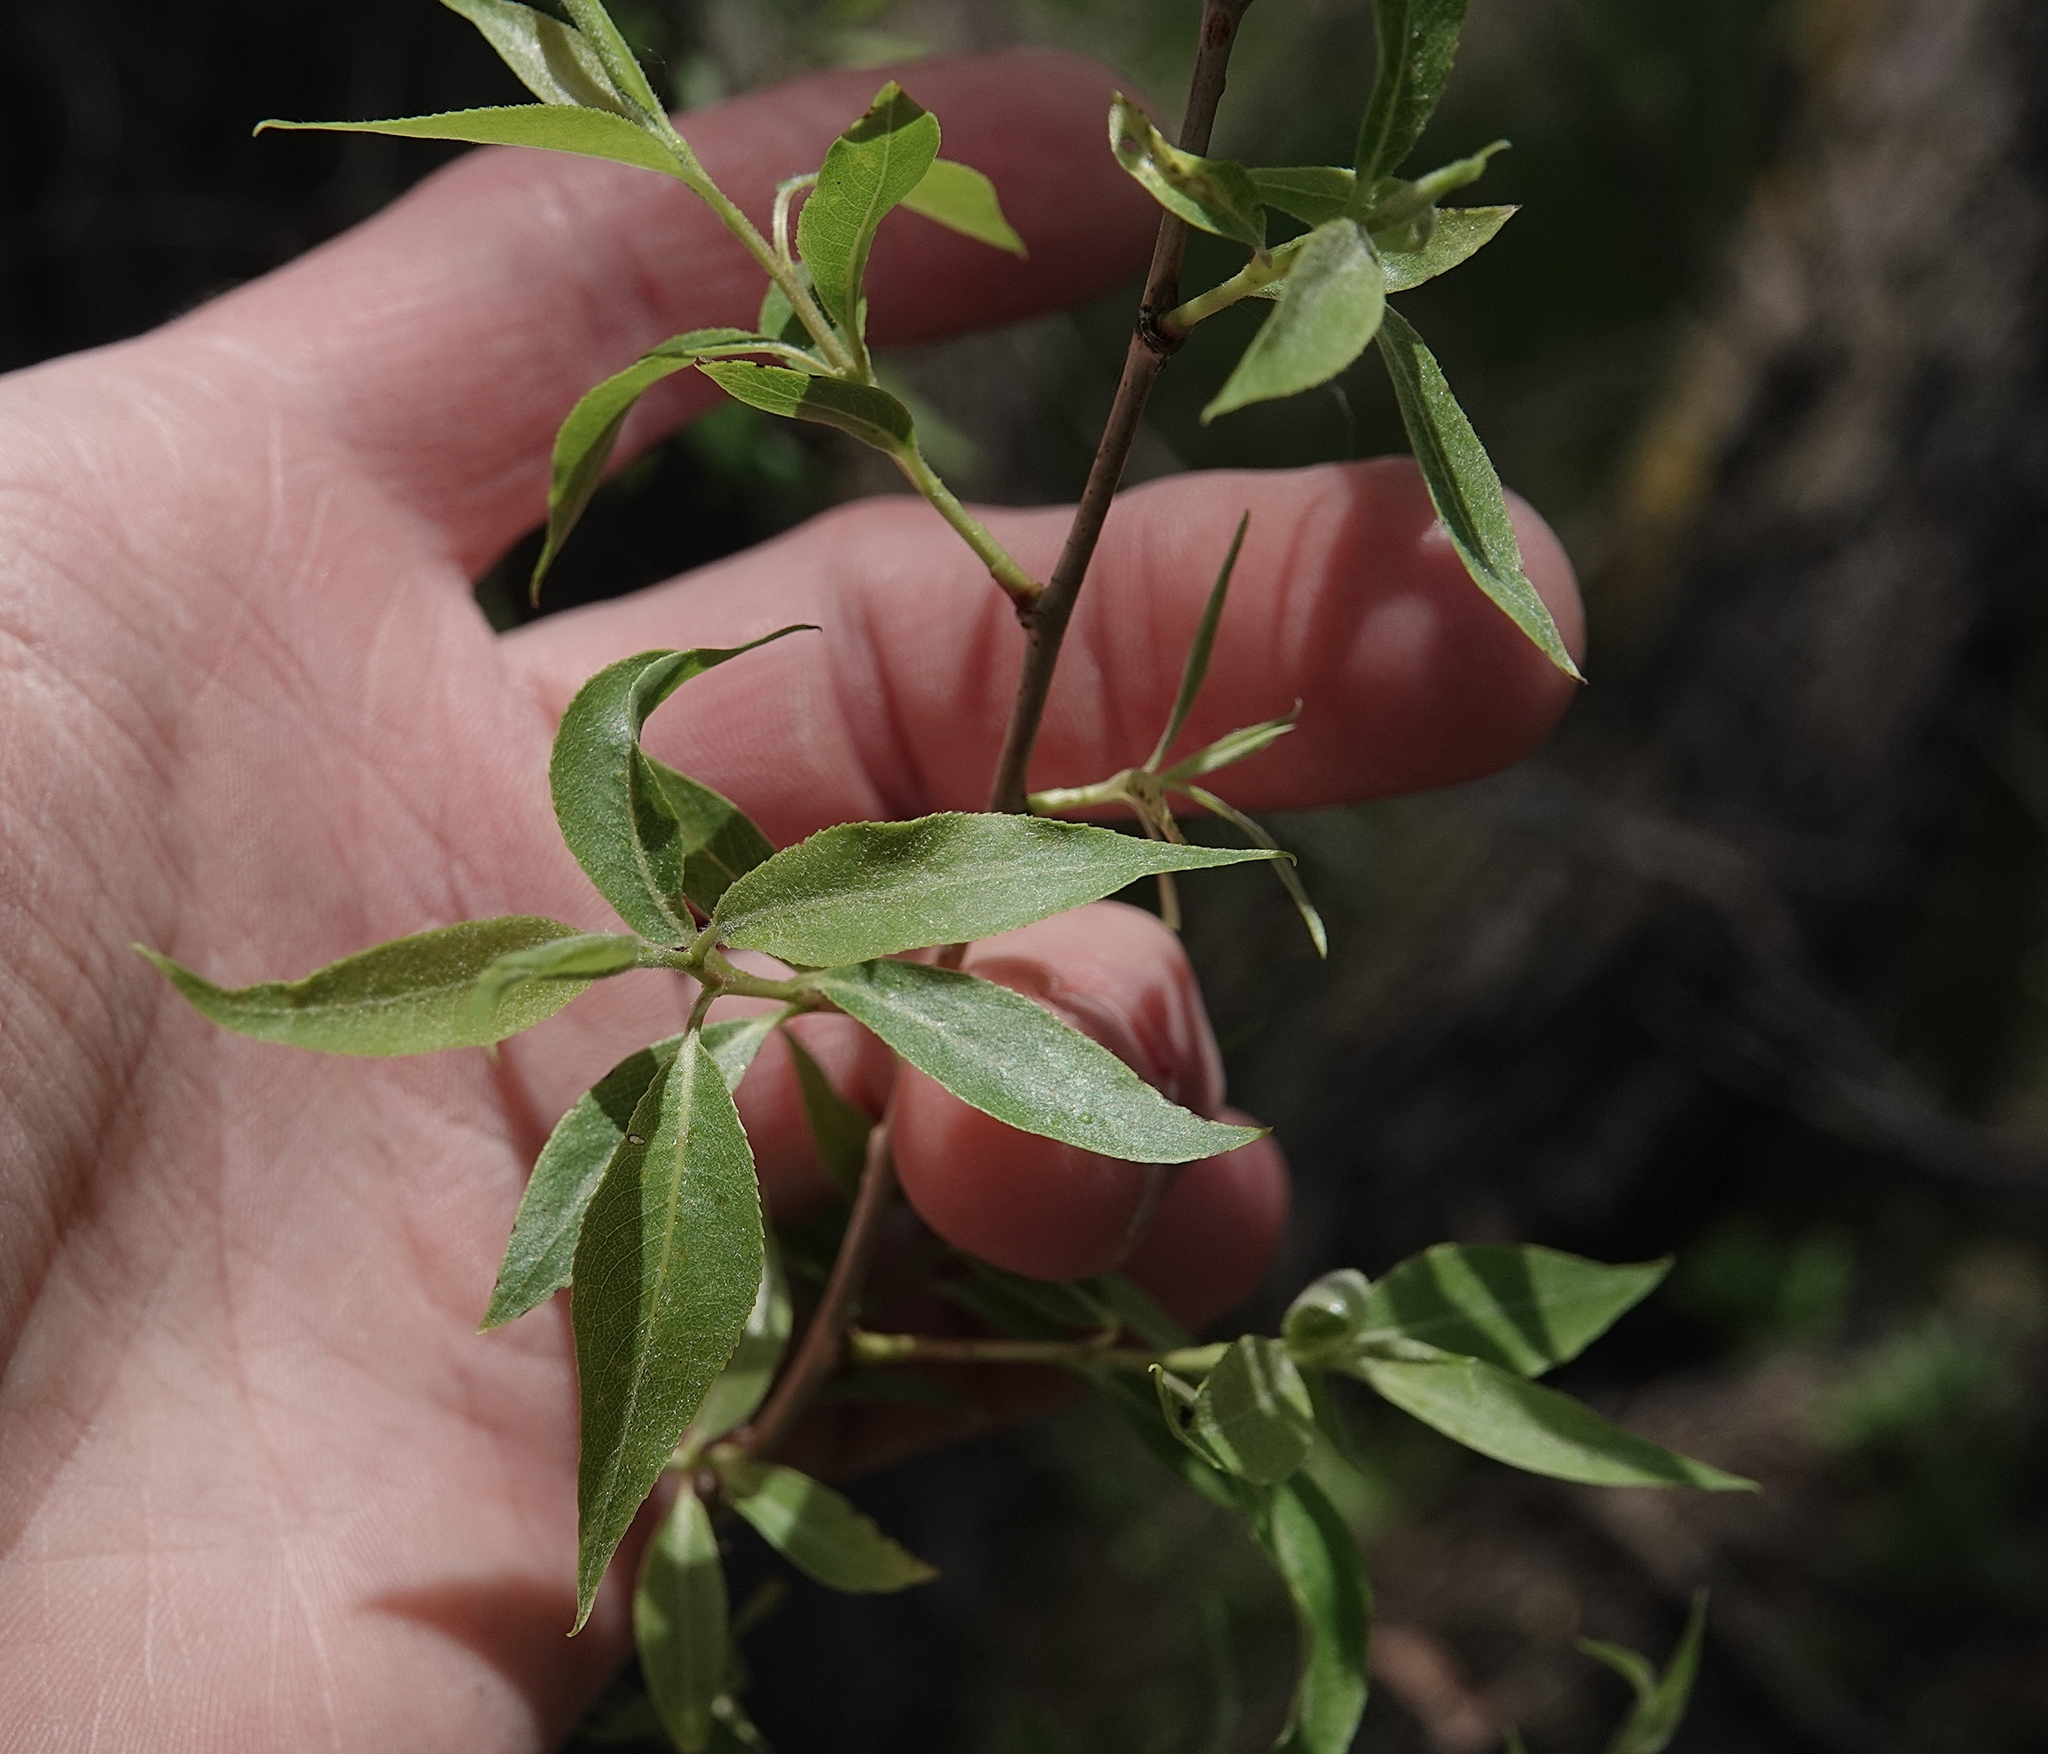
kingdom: Plantae
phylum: Tracheophyta
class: Magnoliopsida
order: Malpighiales
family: Salicaceae
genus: Salix
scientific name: Salix amygdaloides
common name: Peach leaf willow
